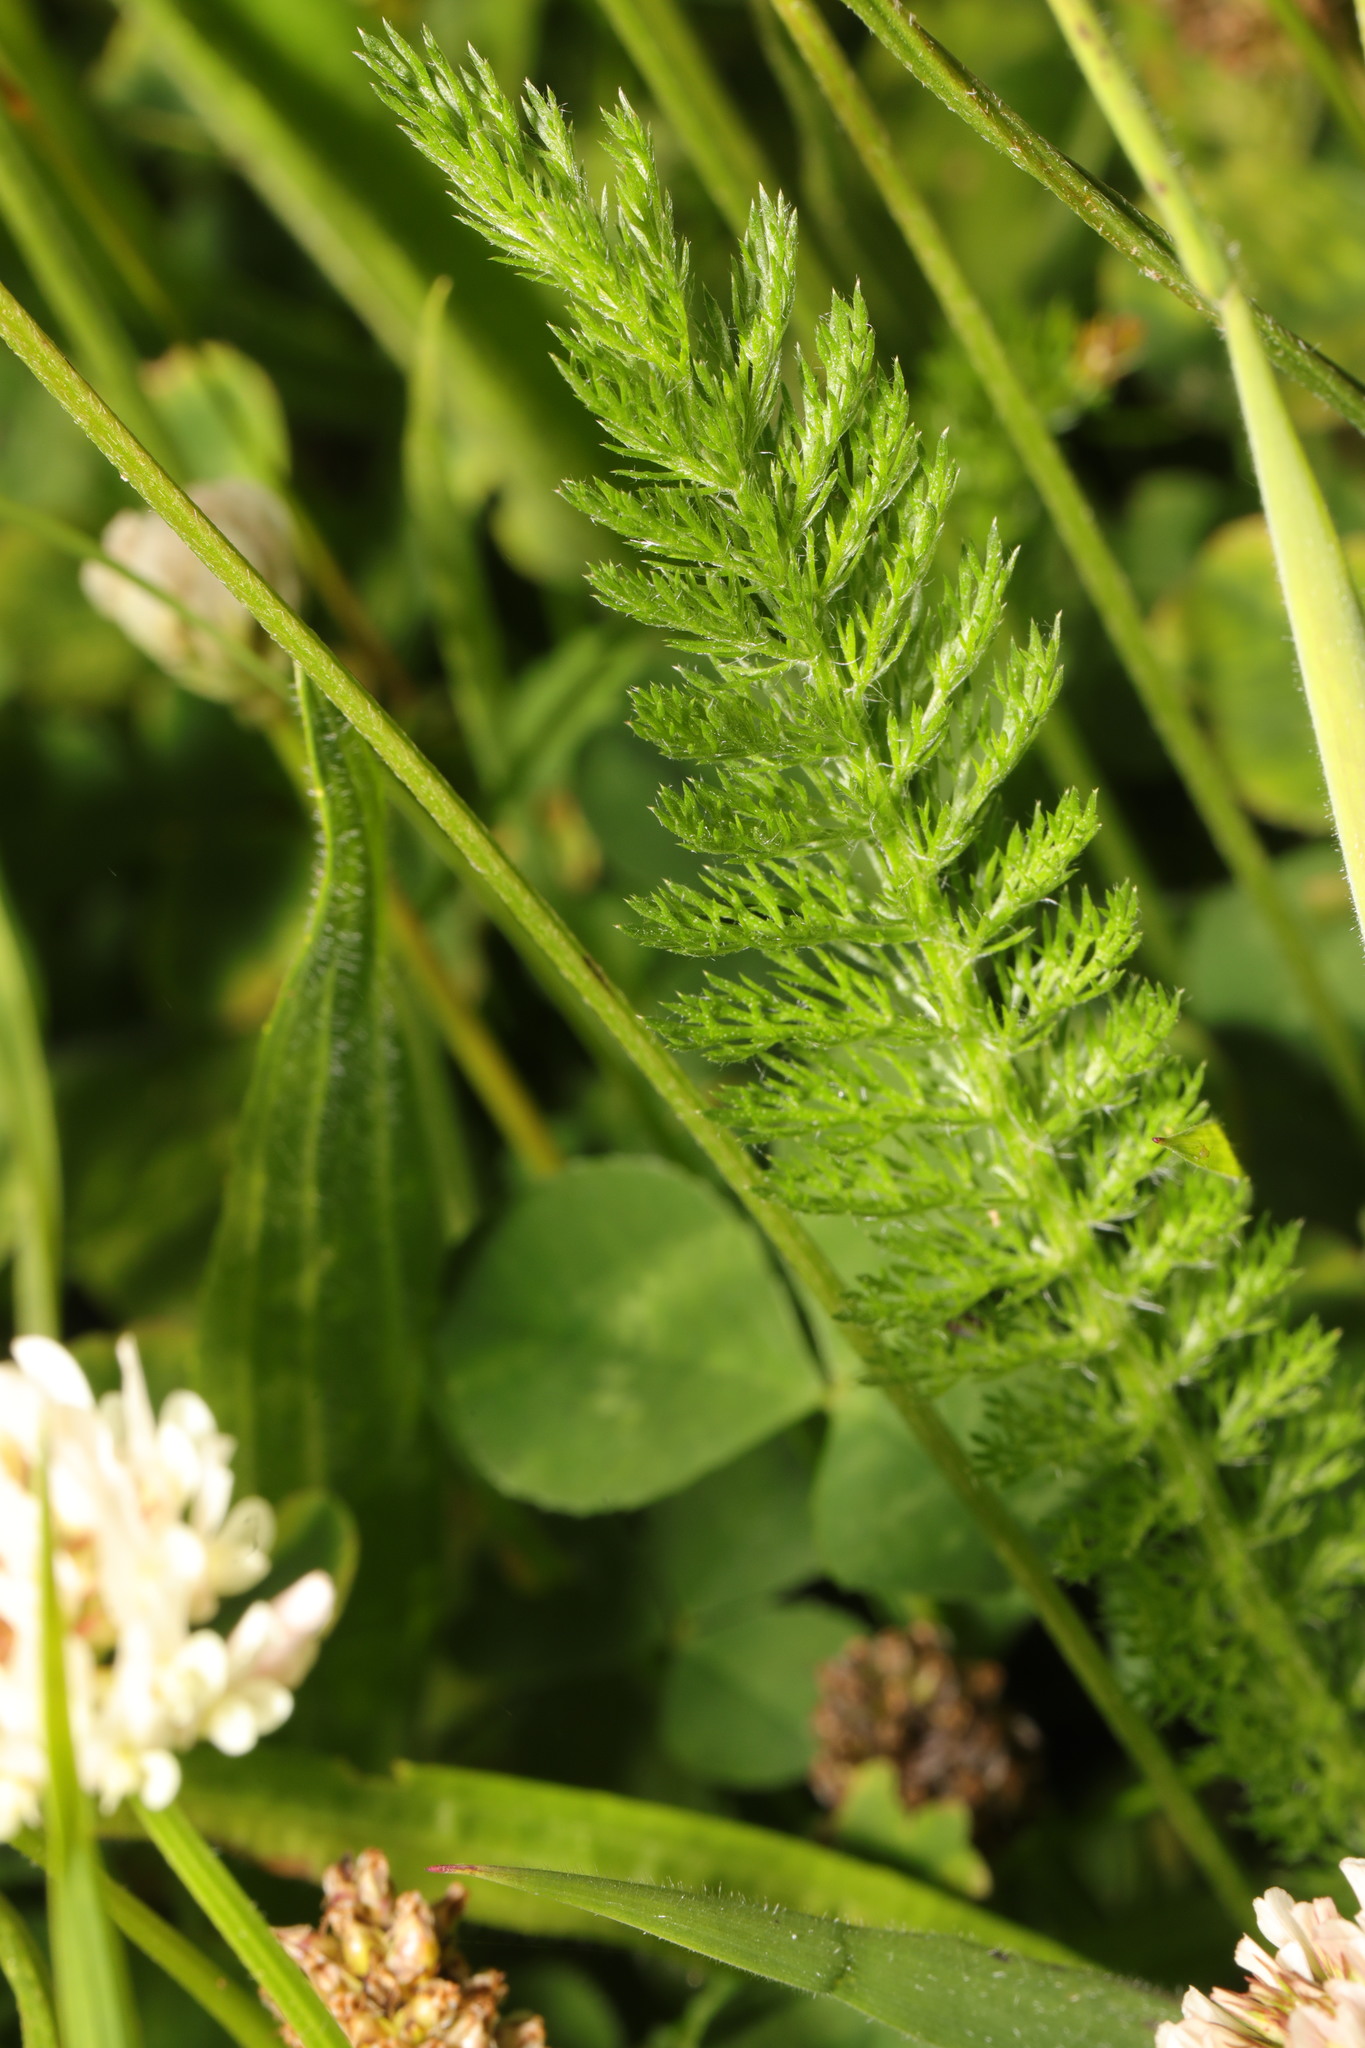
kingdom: Plantae
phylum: Tracheophyta
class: Magnoliopsida
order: Asterales
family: Asteraceae
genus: Achillea
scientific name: Achillea millefolium
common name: Yarrow
